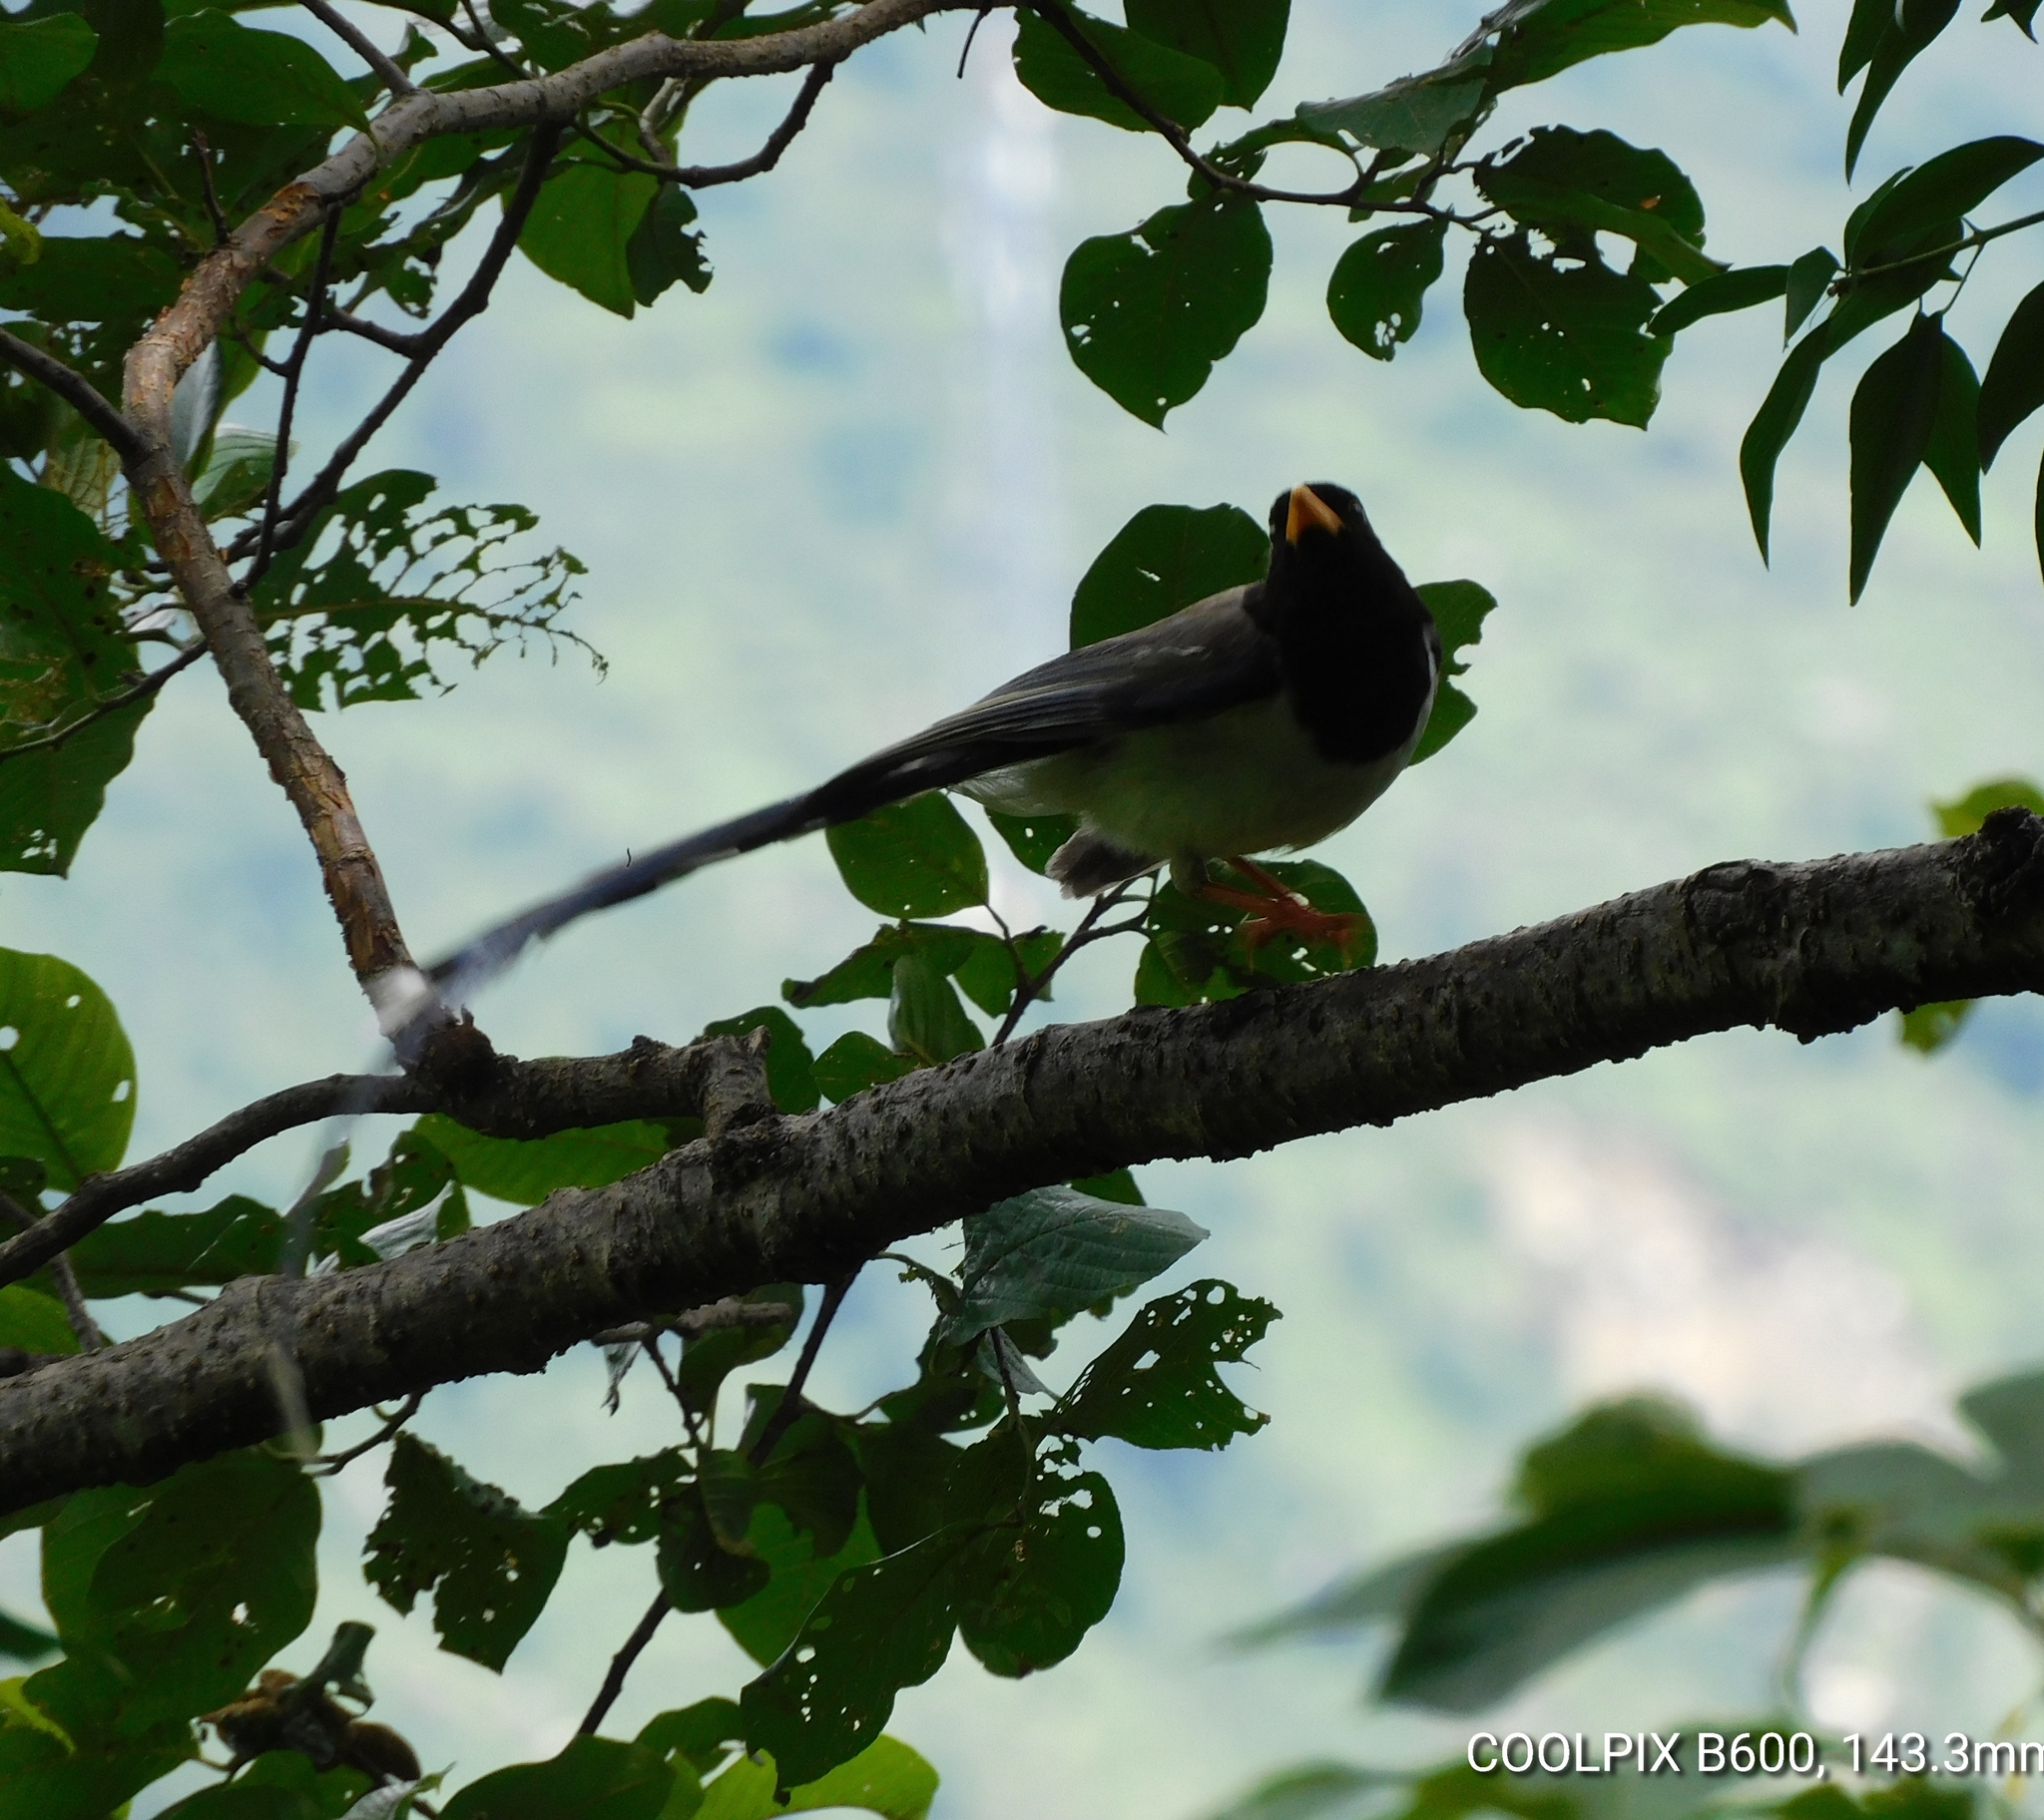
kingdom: Animalia
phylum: Chordata
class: Aves
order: Passeriformes
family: Corvidae
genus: Urocissa
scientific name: Urocissa flavirostris
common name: Yellow-billed blue magpie
